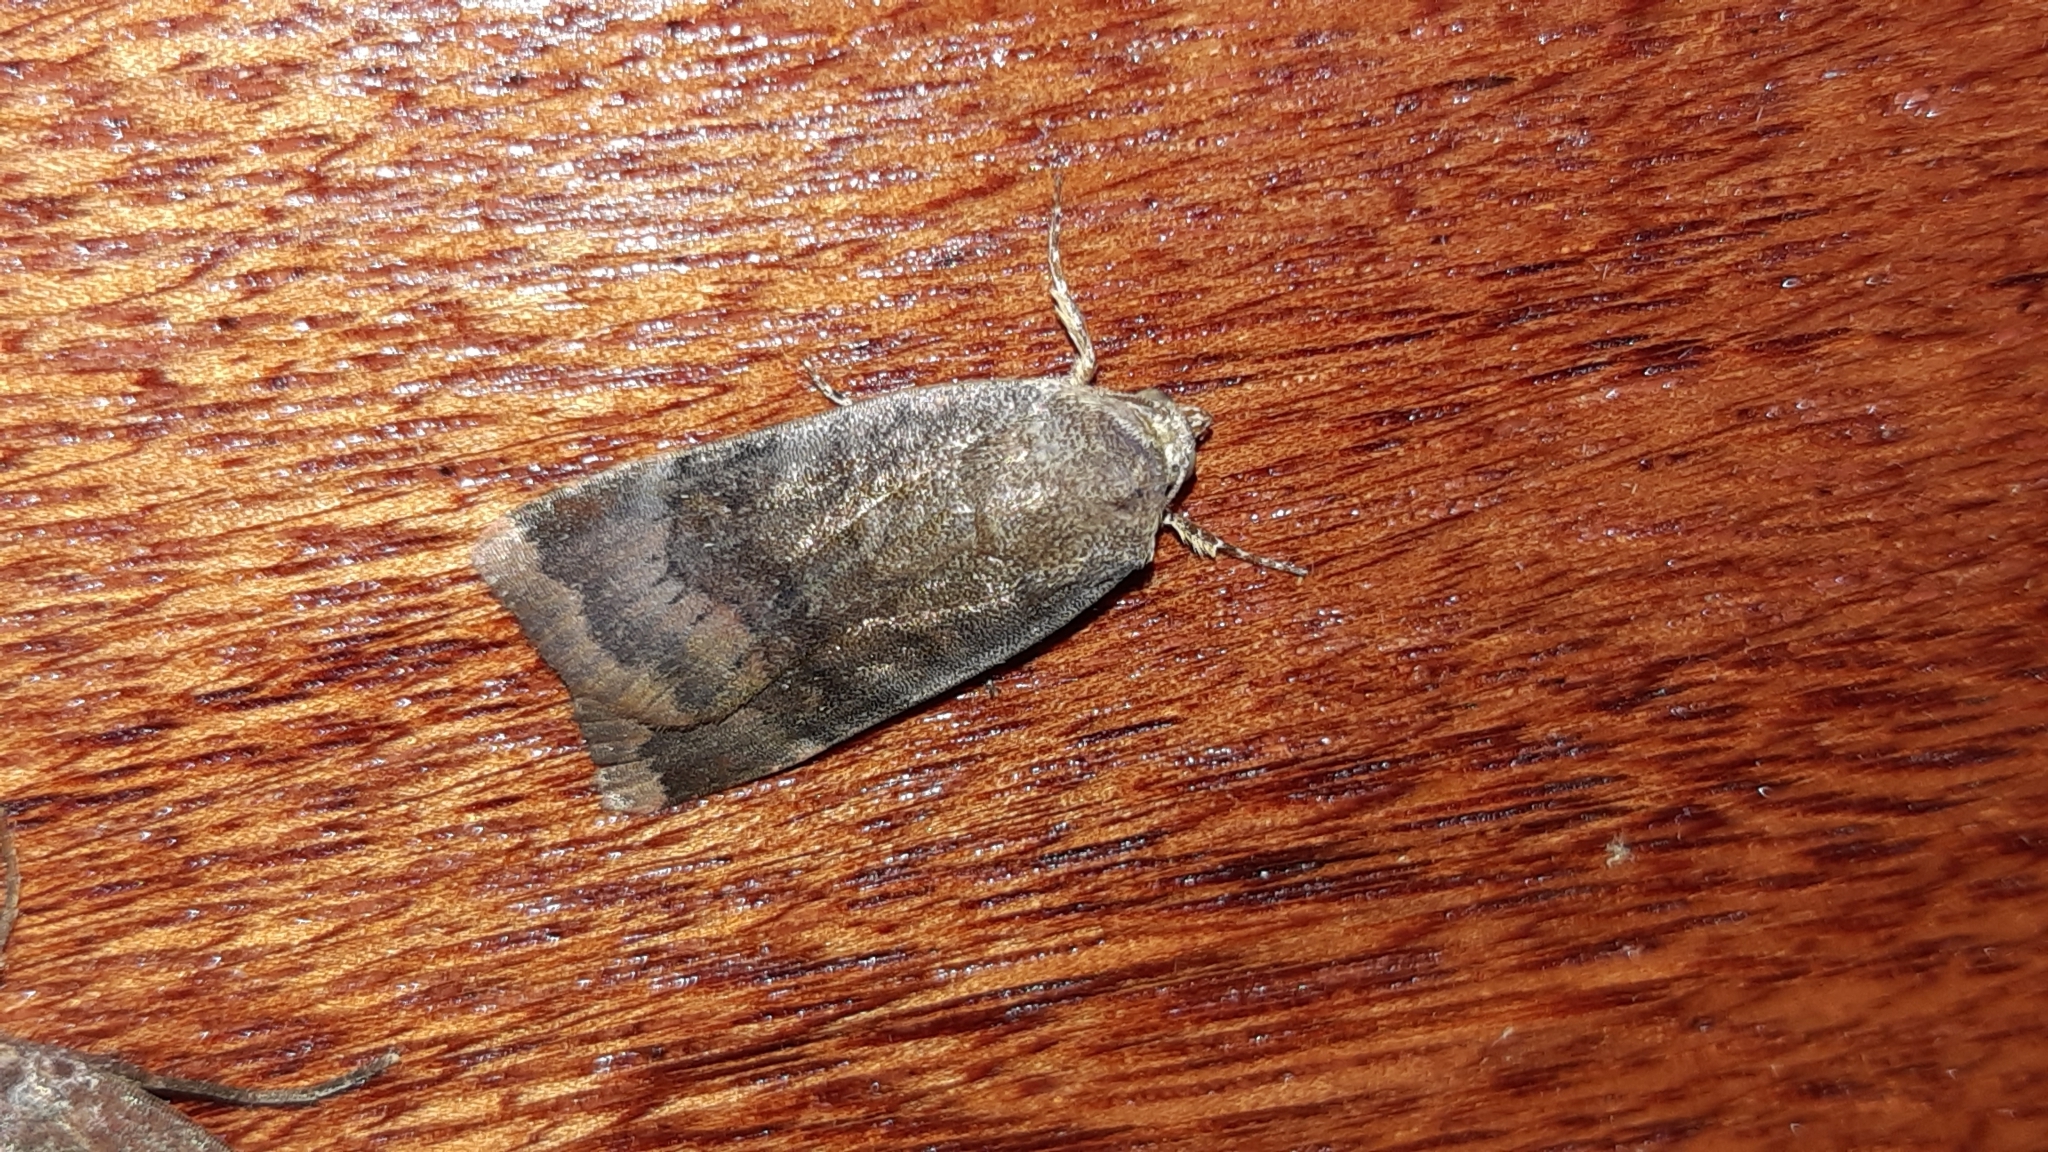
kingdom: Animalia
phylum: Arthropoda
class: Insecta
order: Lepidoptera
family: Noctuidae
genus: Noctua
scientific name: Noctua janthe
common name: Lesser broad-bordered yellow underwing
